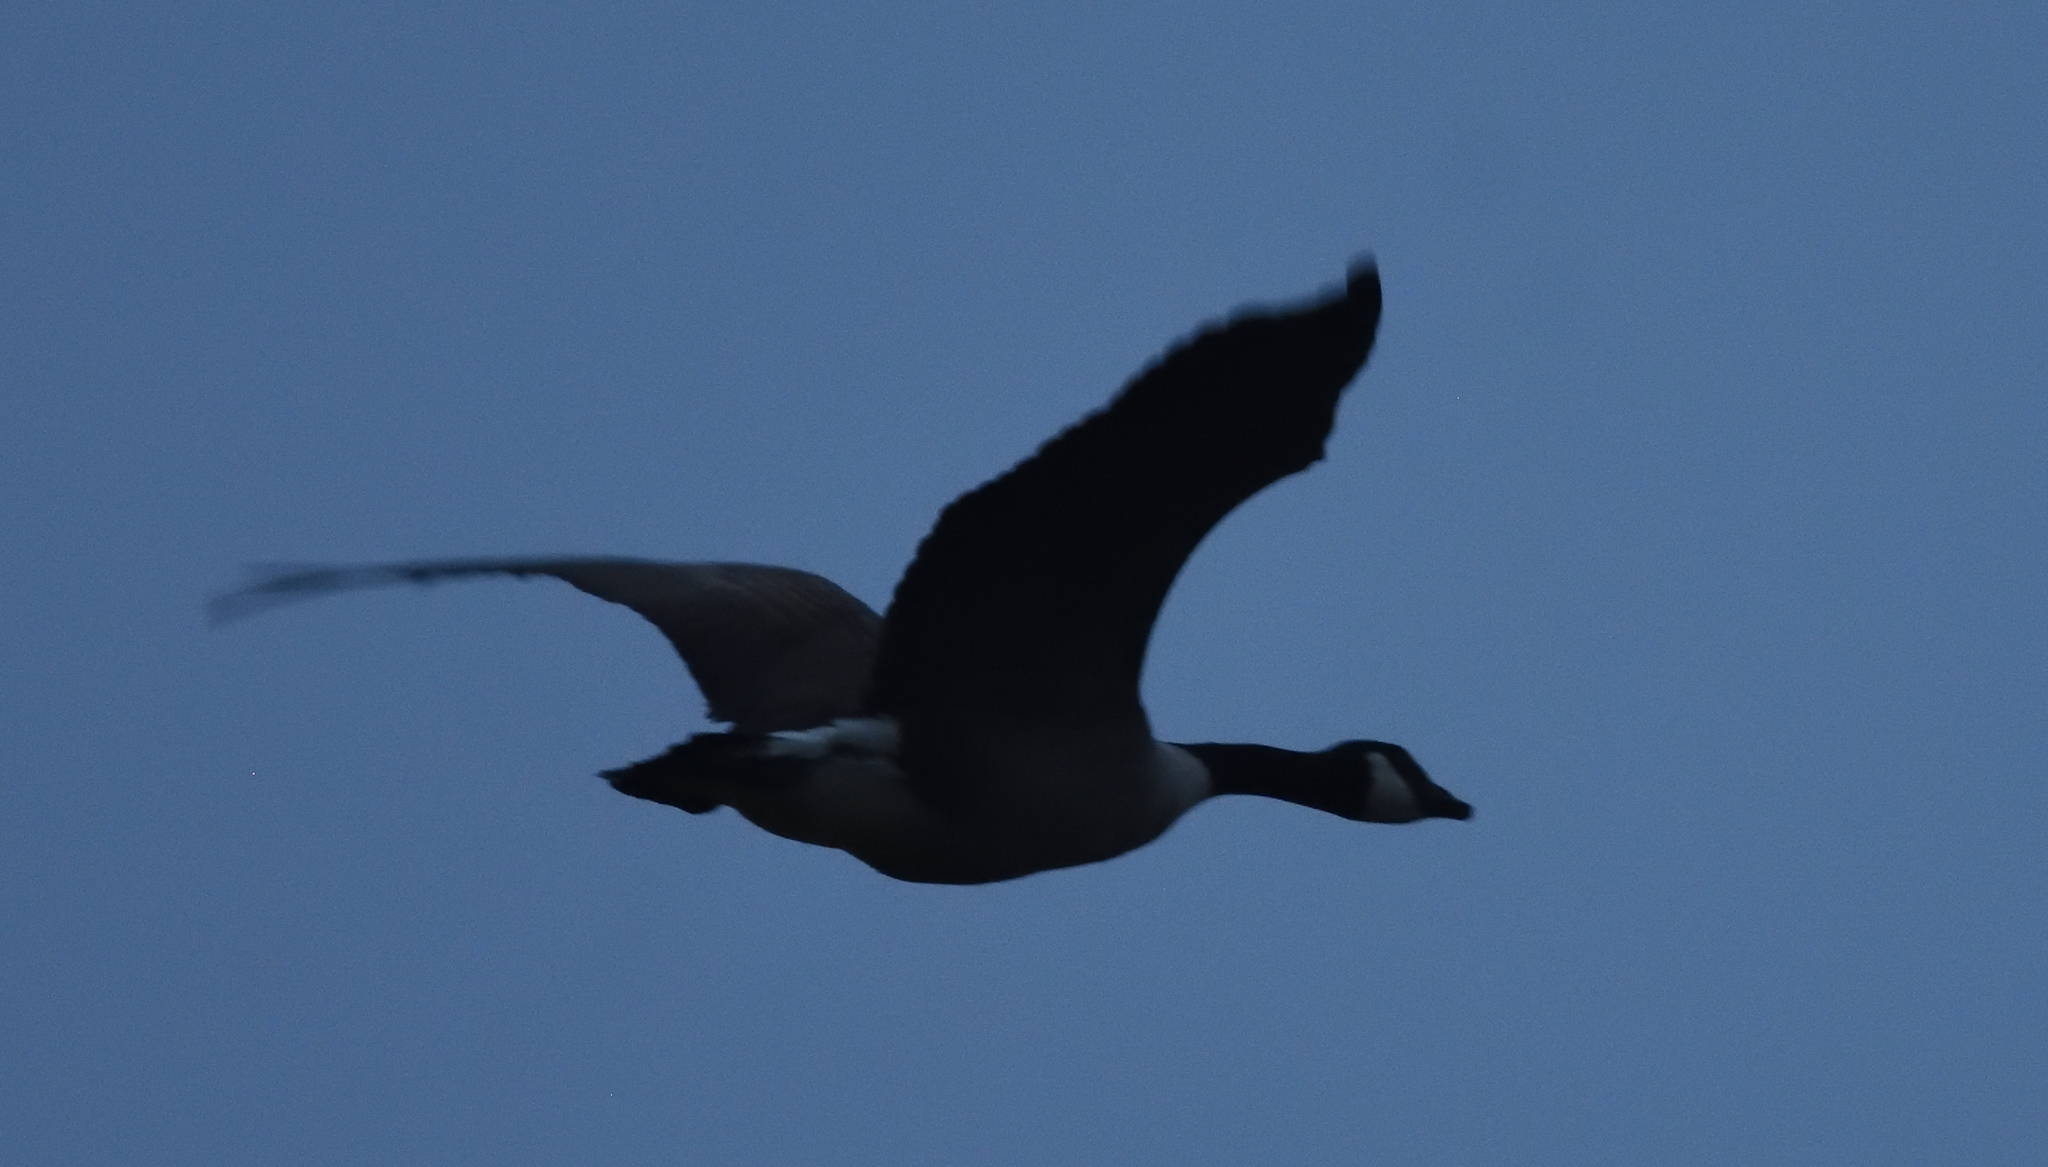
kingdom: Animalia
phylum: Chordata
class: Aves
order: Anseriformes
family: Anatidae
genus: Branta
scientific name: Branta canadensis
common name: Canada goose
